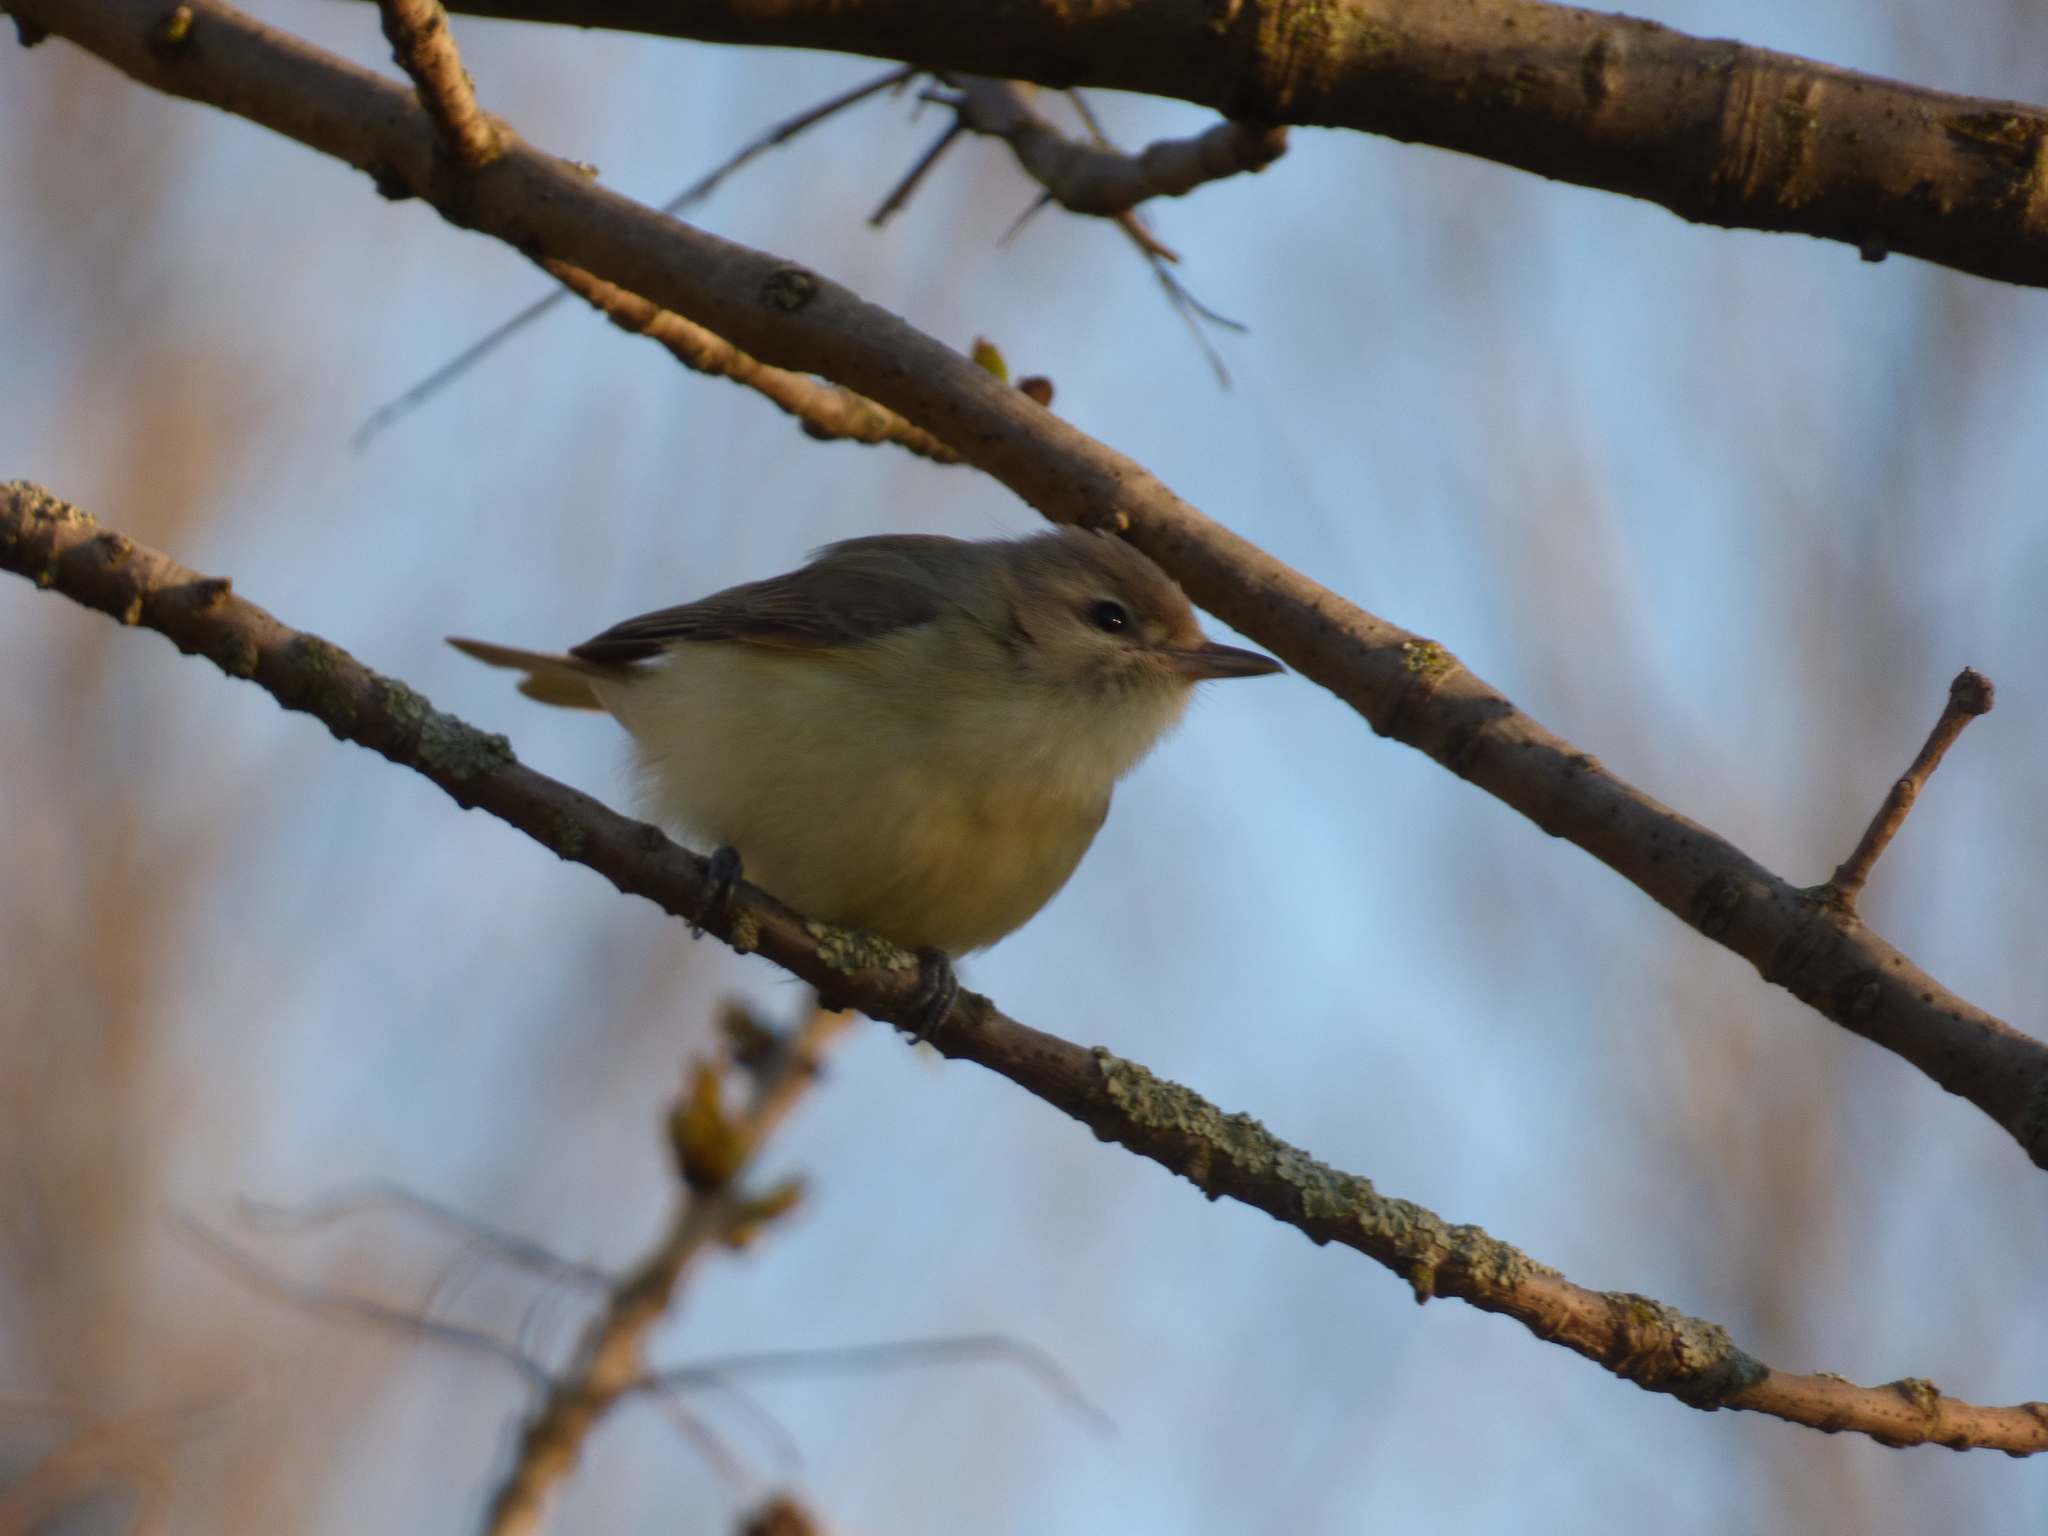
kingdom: Animalia
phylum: Chordata
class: Aves
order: Passeriformes
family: Vireonidae
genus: Vireo
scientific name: Vireo gilvus
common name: Warbling vireo
